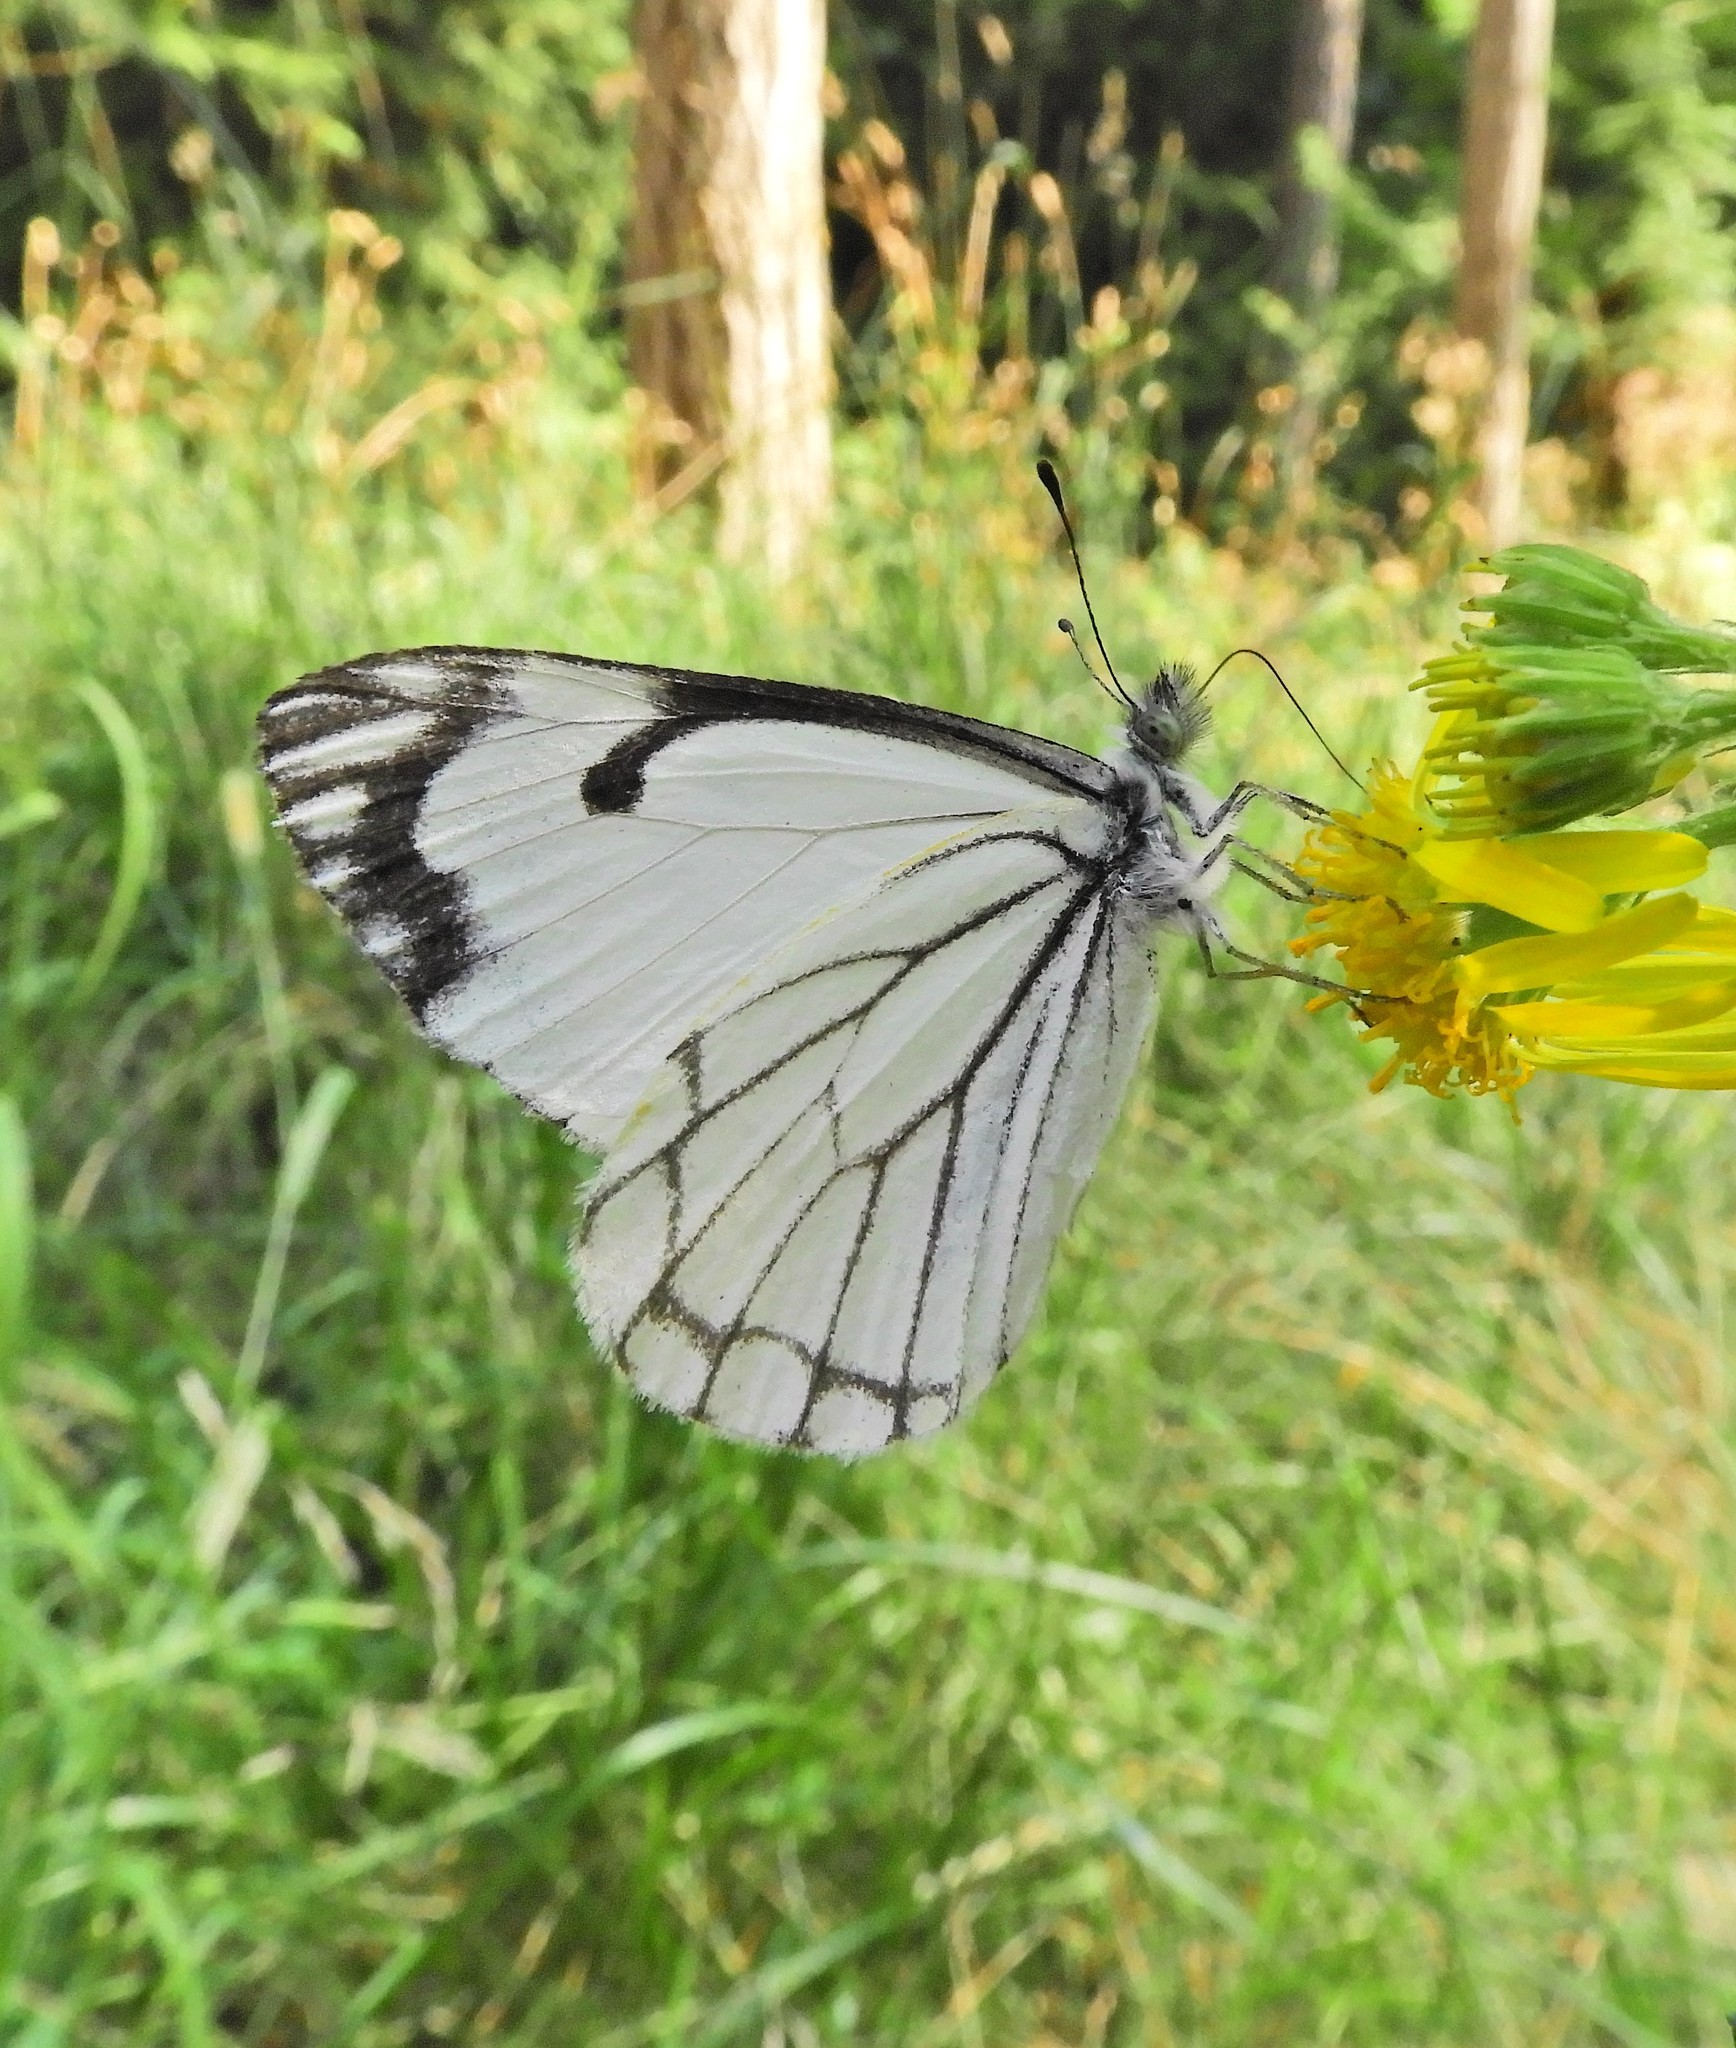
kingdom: Animalia
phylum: Arthropoda
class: Insecta
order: Lepidoptera
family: Pieridae
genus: Neophasia
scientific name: Neophasia menapia
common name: Pine white
